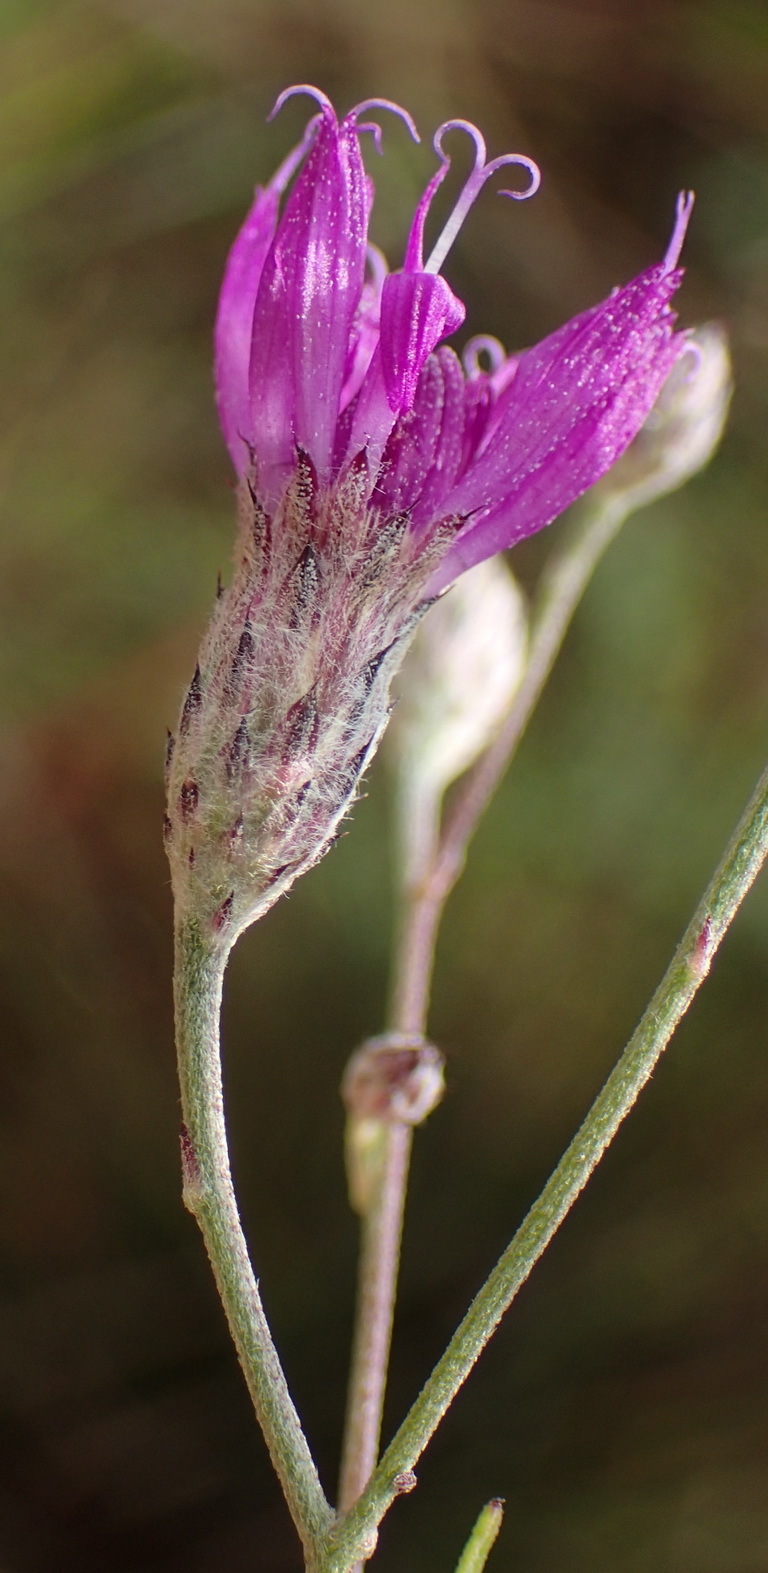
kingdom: Plantae
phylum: Tracheophyta
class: Magnoliopsida
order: Asterales
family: Asteraceae
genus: Crystallopollen
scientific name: Crystallopollen angustifolium
